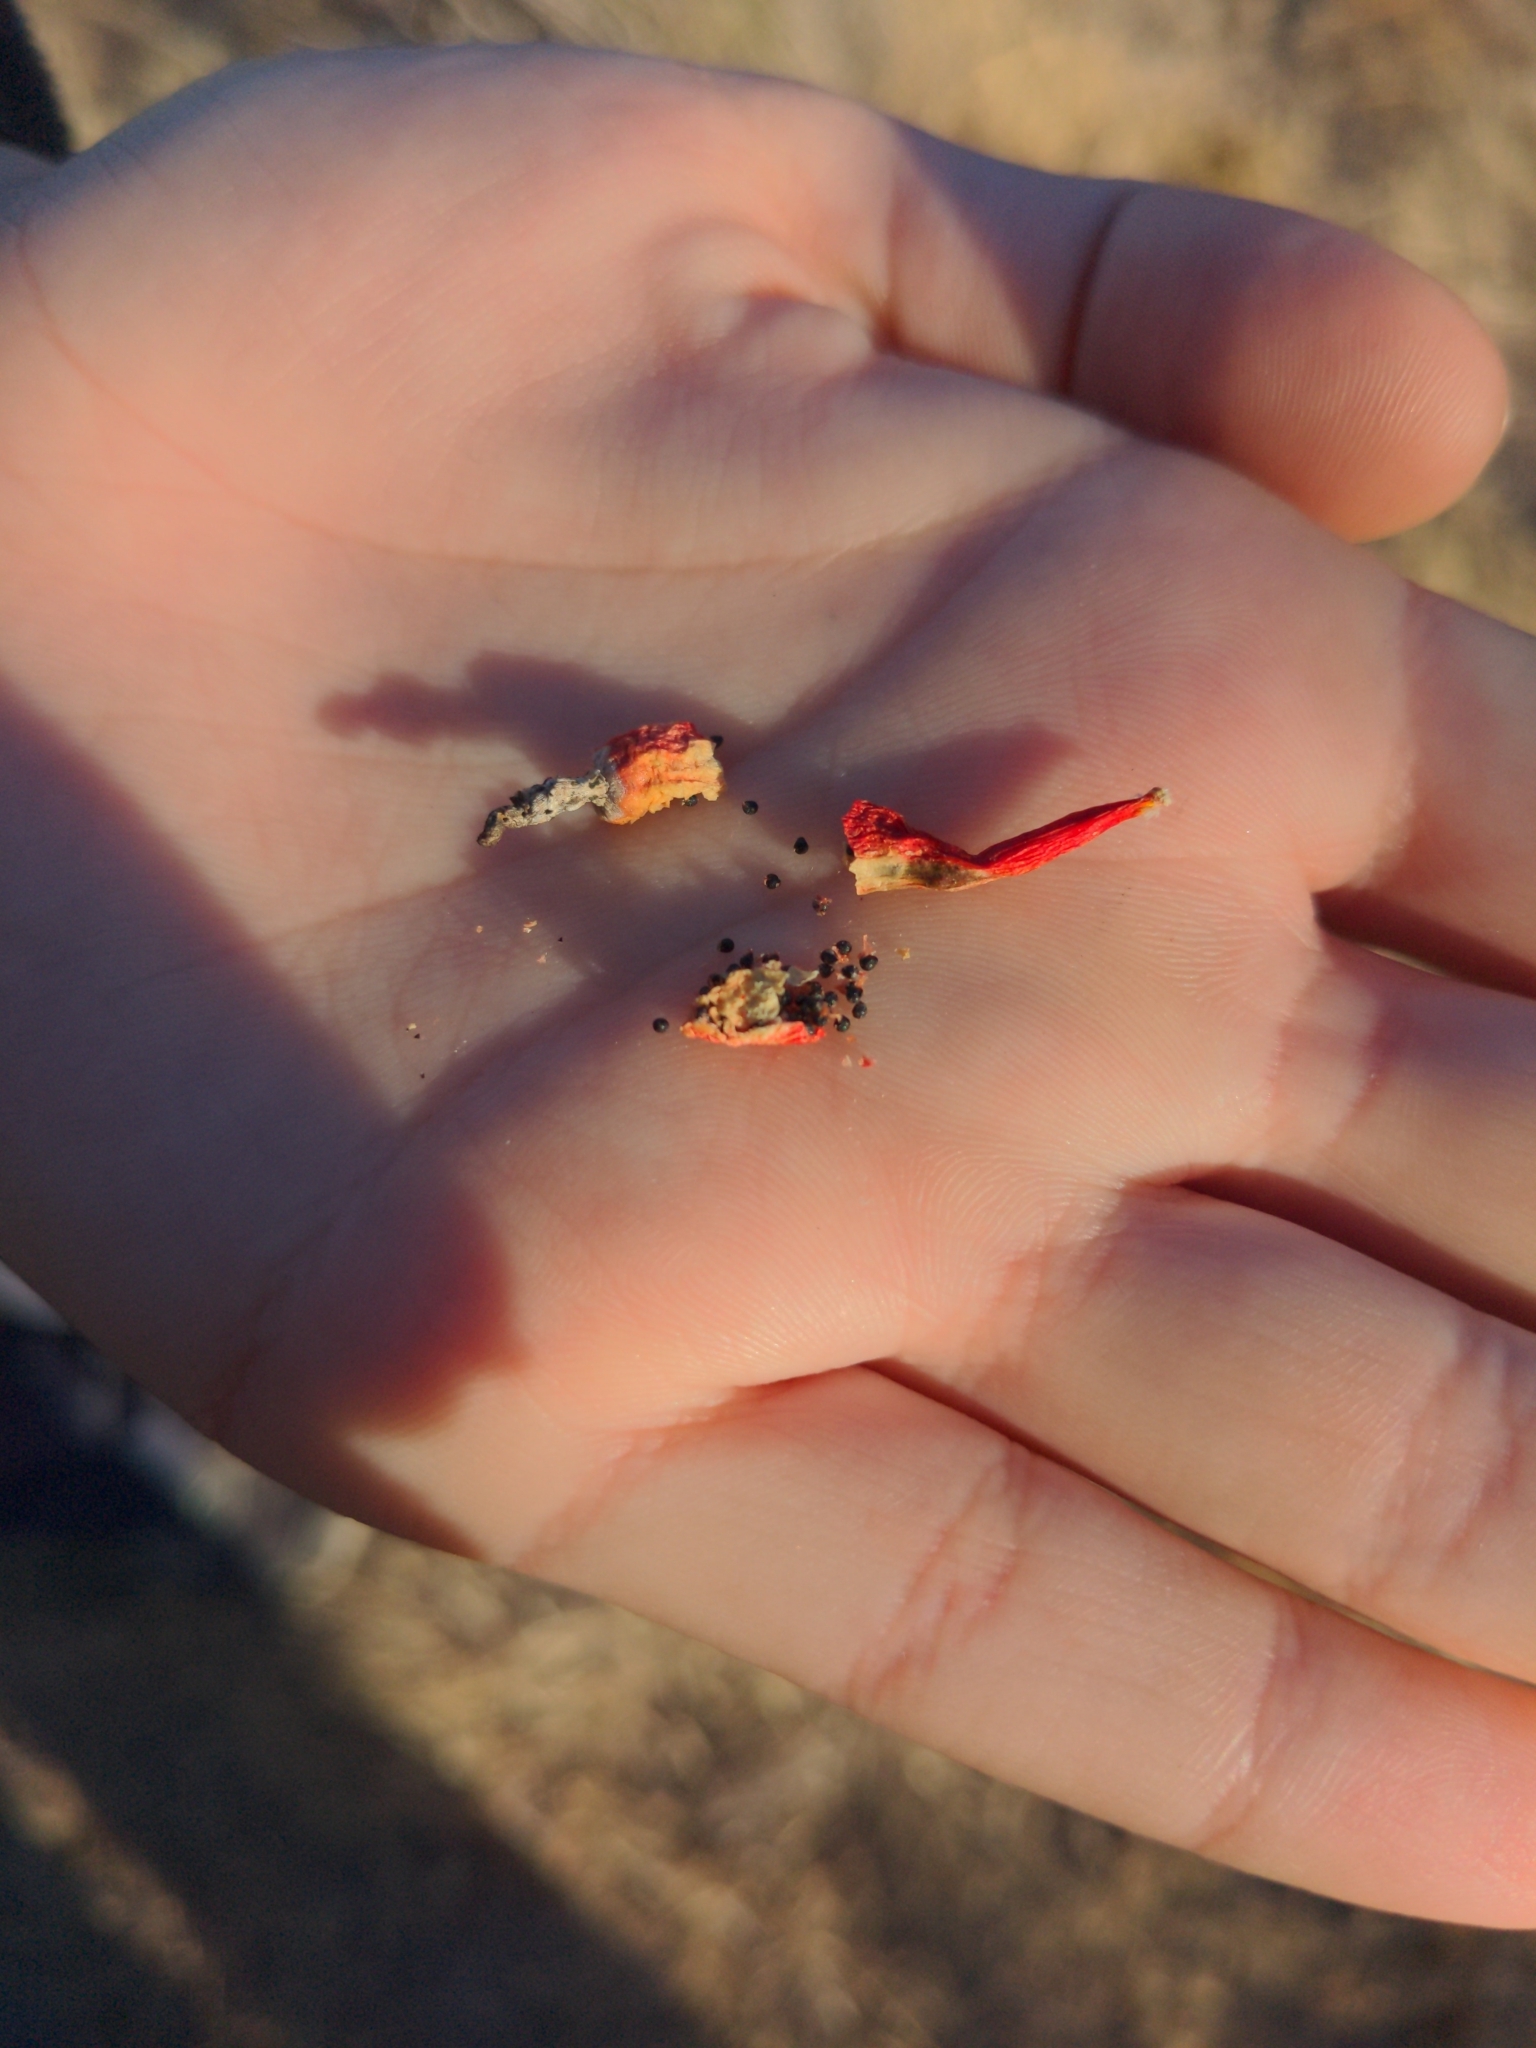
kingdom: Plantae
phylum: Tracheophyta
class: Magnoliopsida
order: Caryophyllales
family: Cactaceae
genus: Cochemiea
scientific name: Cochemiea grahamii
